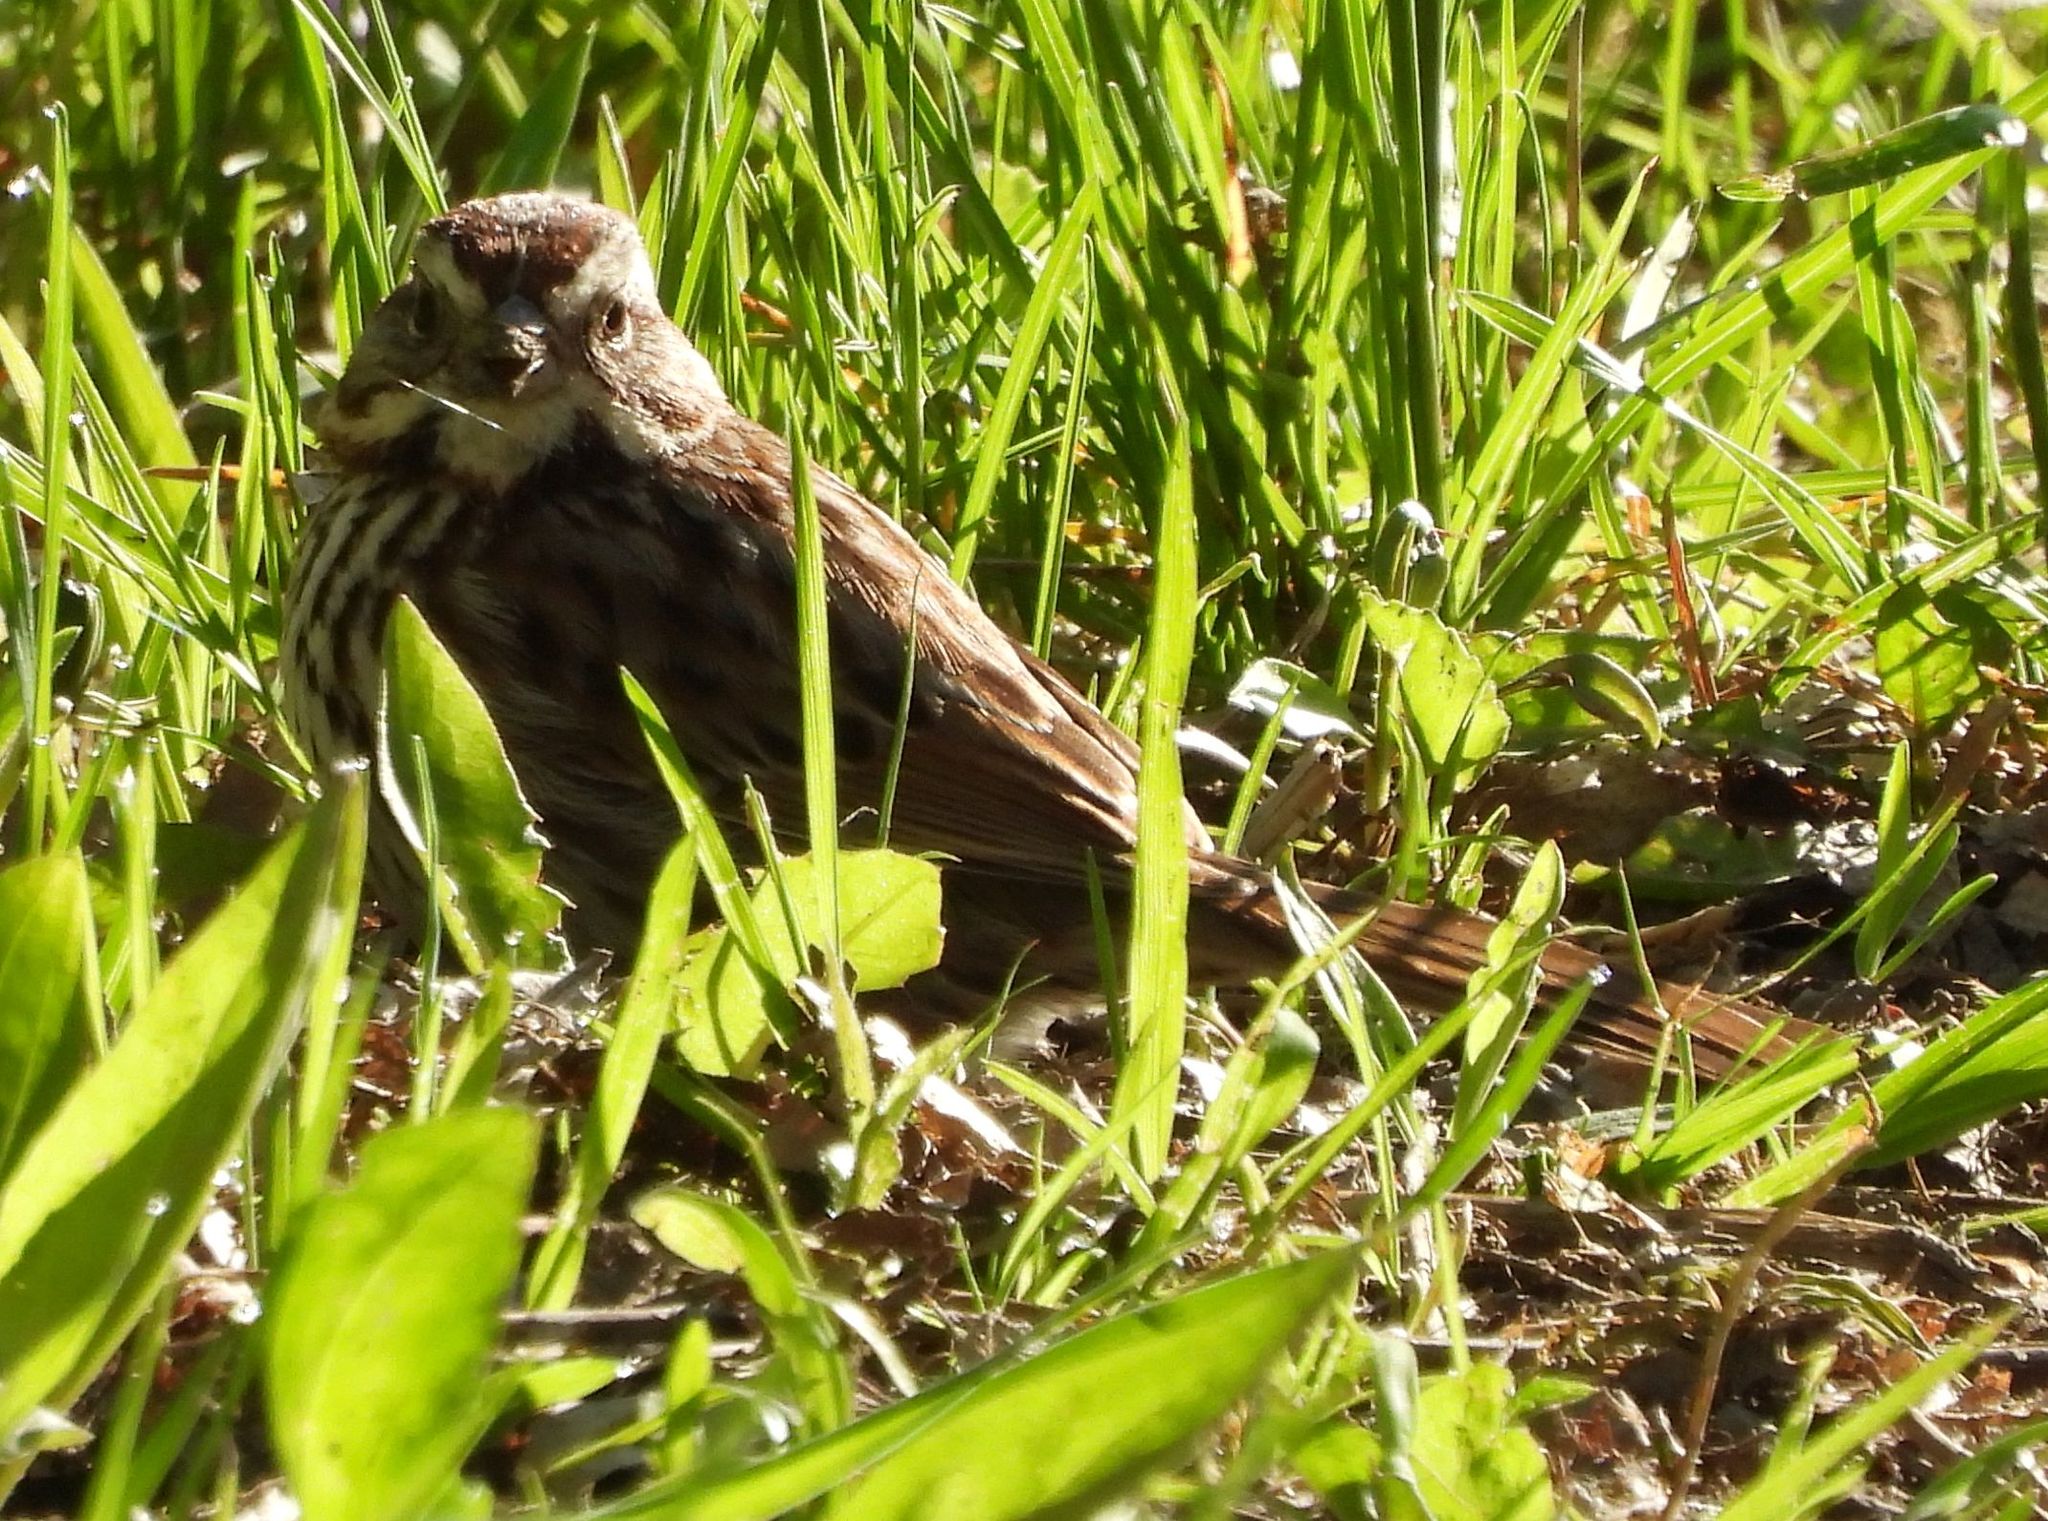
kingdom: Animalia
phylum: Chordata
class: Aves
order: Passeriformes
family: Passerellidae
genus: Melospiza
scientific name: Melospiza melodia
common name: Song sparrow
